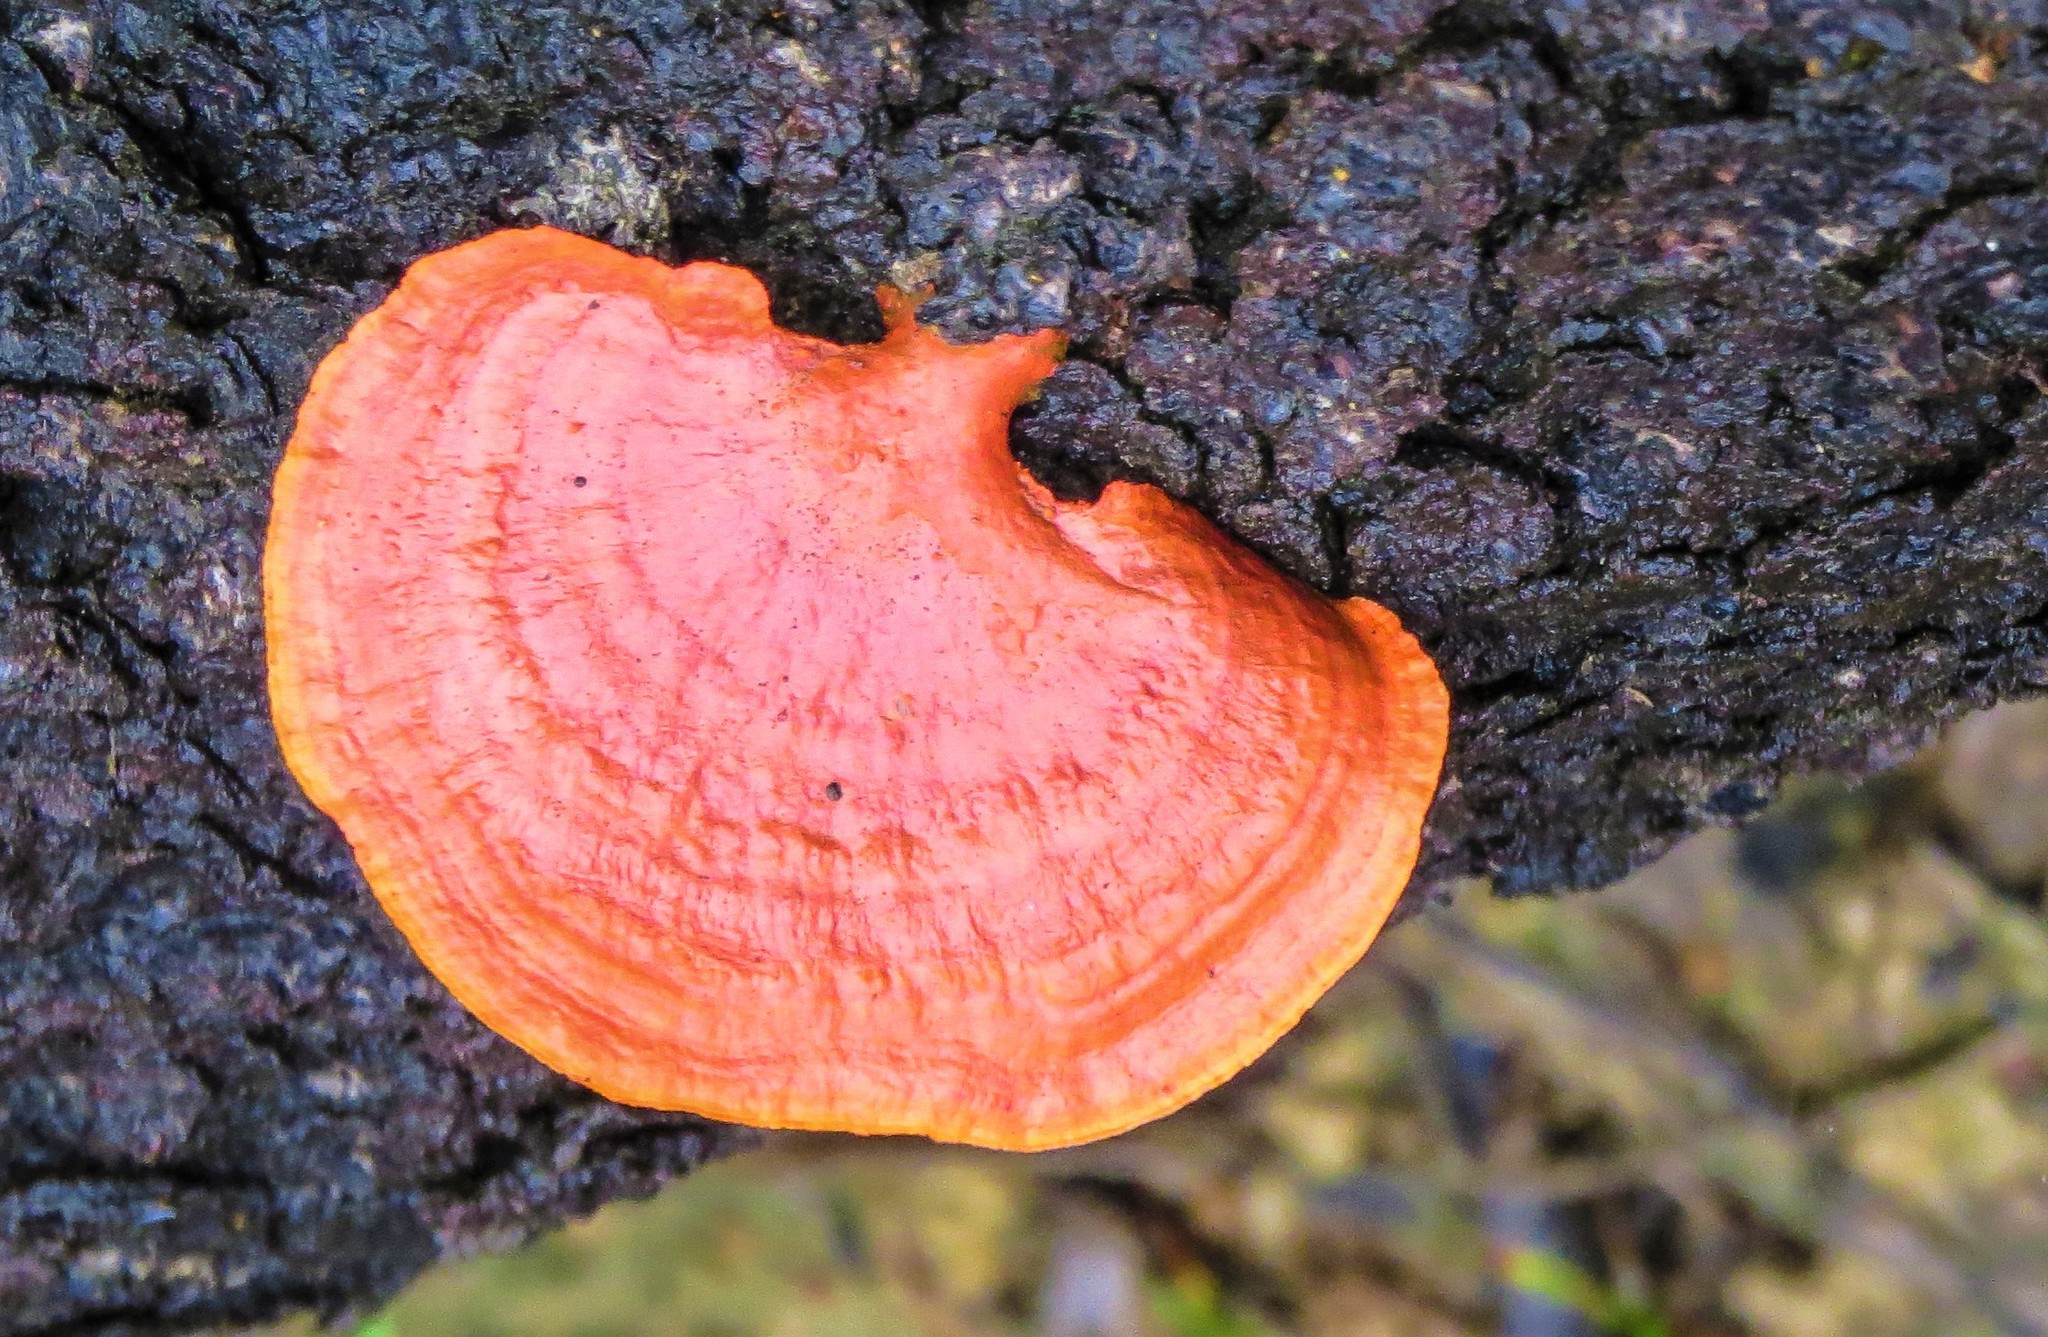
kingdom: Fungi
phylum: Basidiomycota
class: Agaricomycetes
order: Polyporales
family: Polyporaceae
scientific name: Polyporaceae
